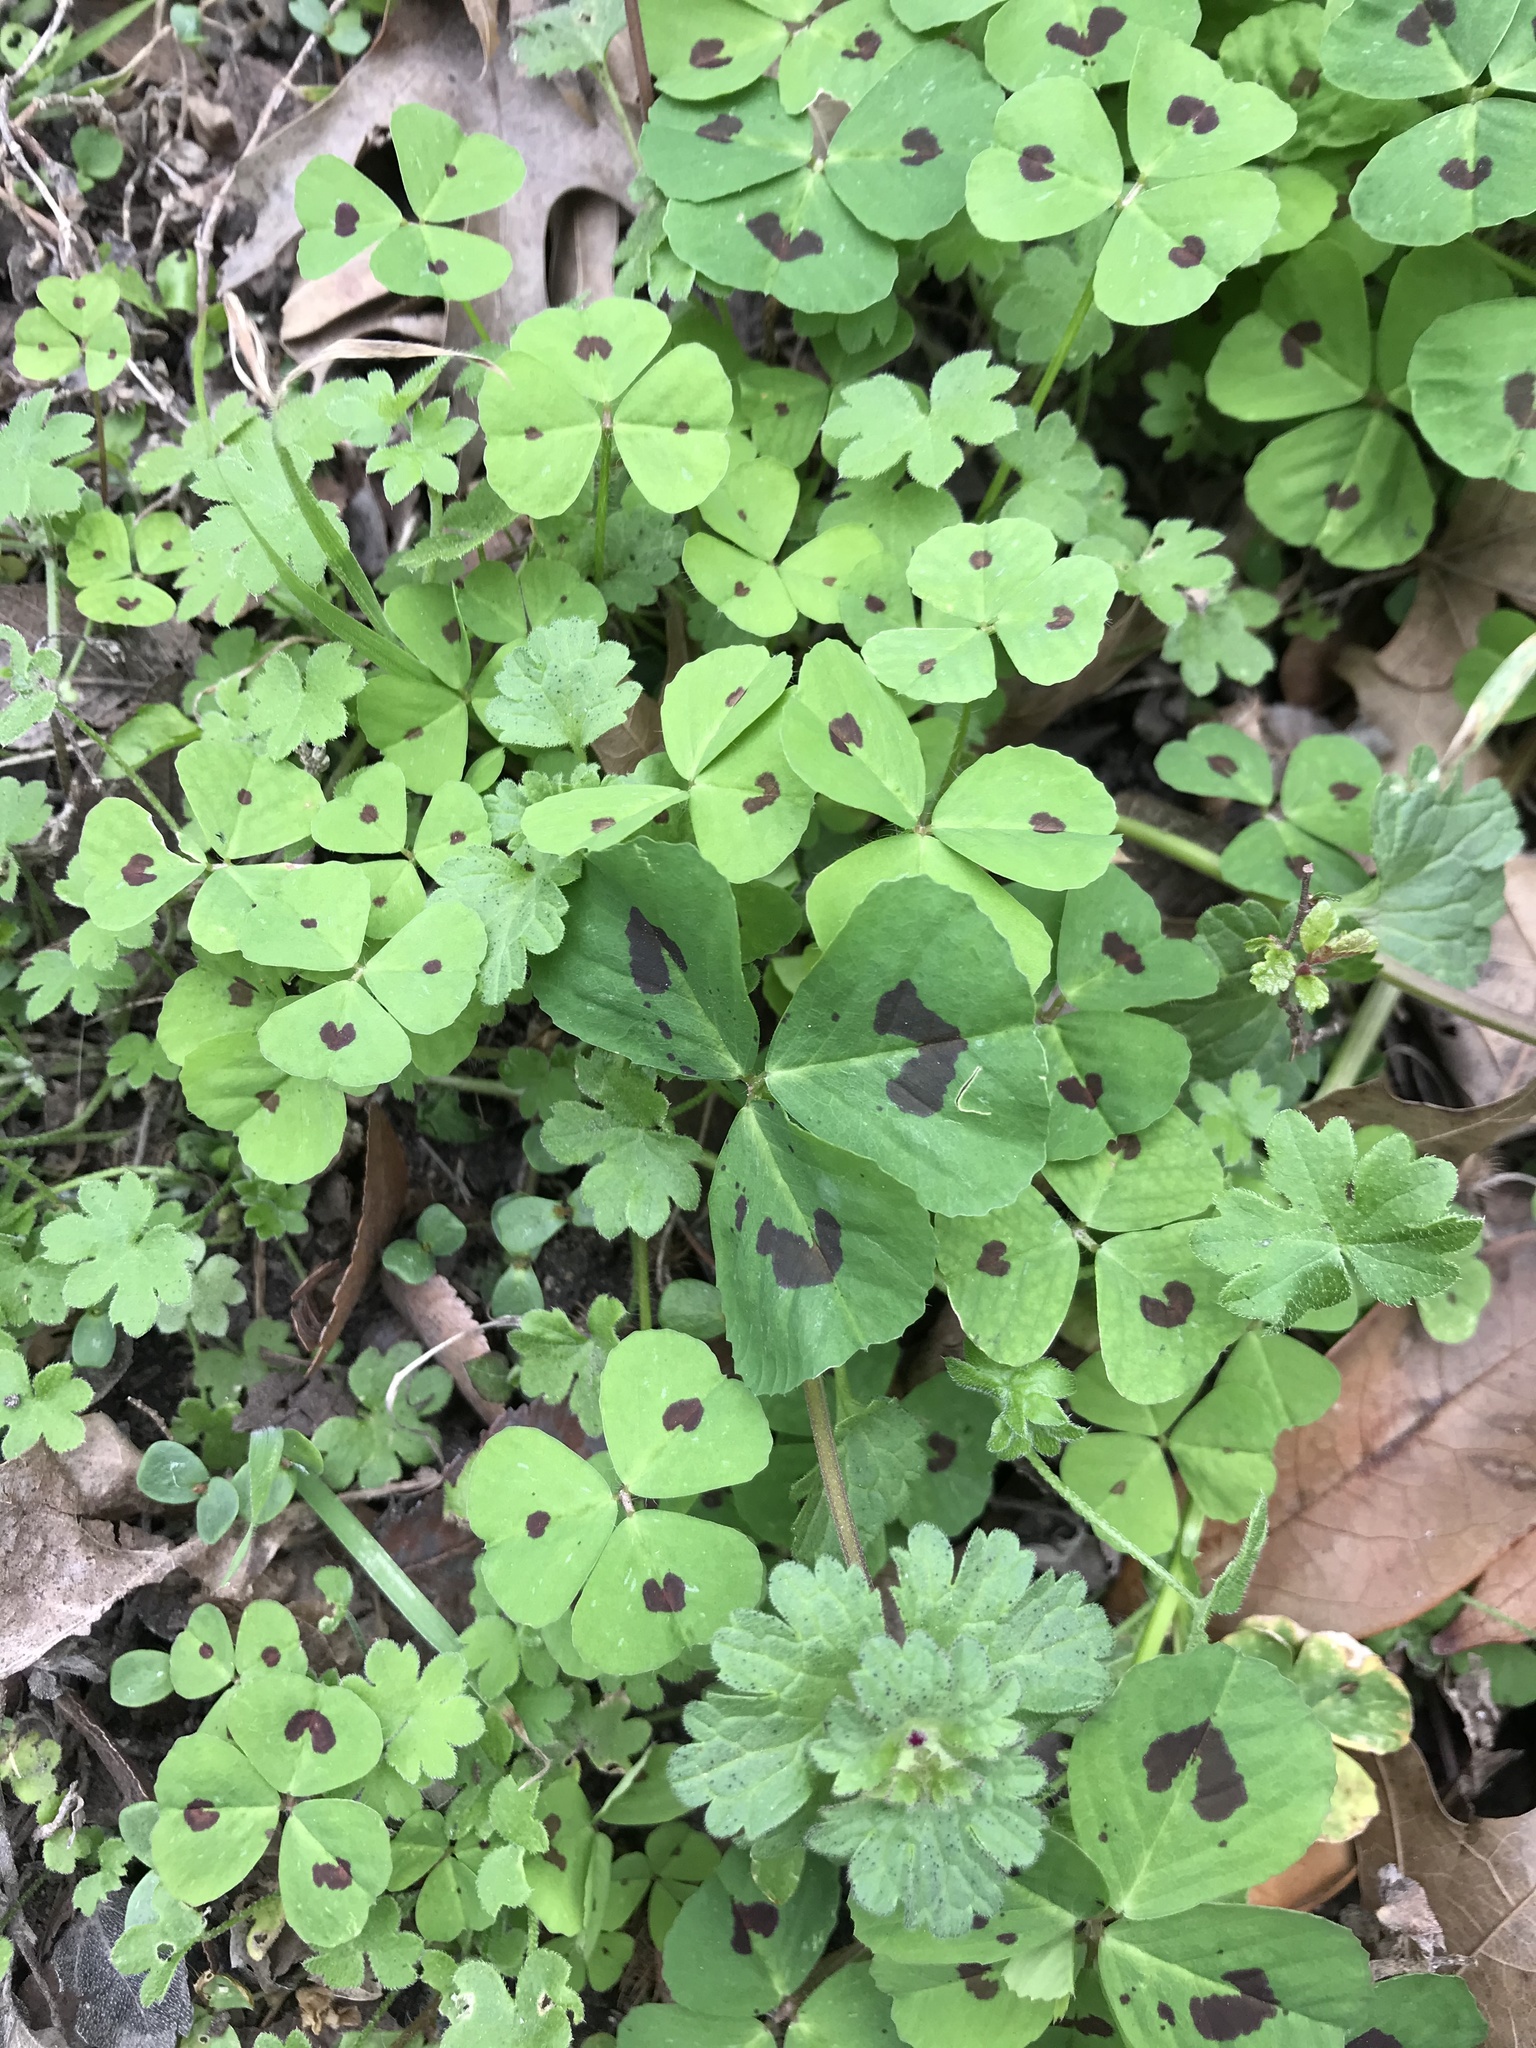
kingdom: Plantae
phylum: Tracheophyta
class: Magnoliopsida
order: Fabales
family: Fabaceae
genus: Medicago
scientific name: Medicago arabica
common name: Spotted medick
